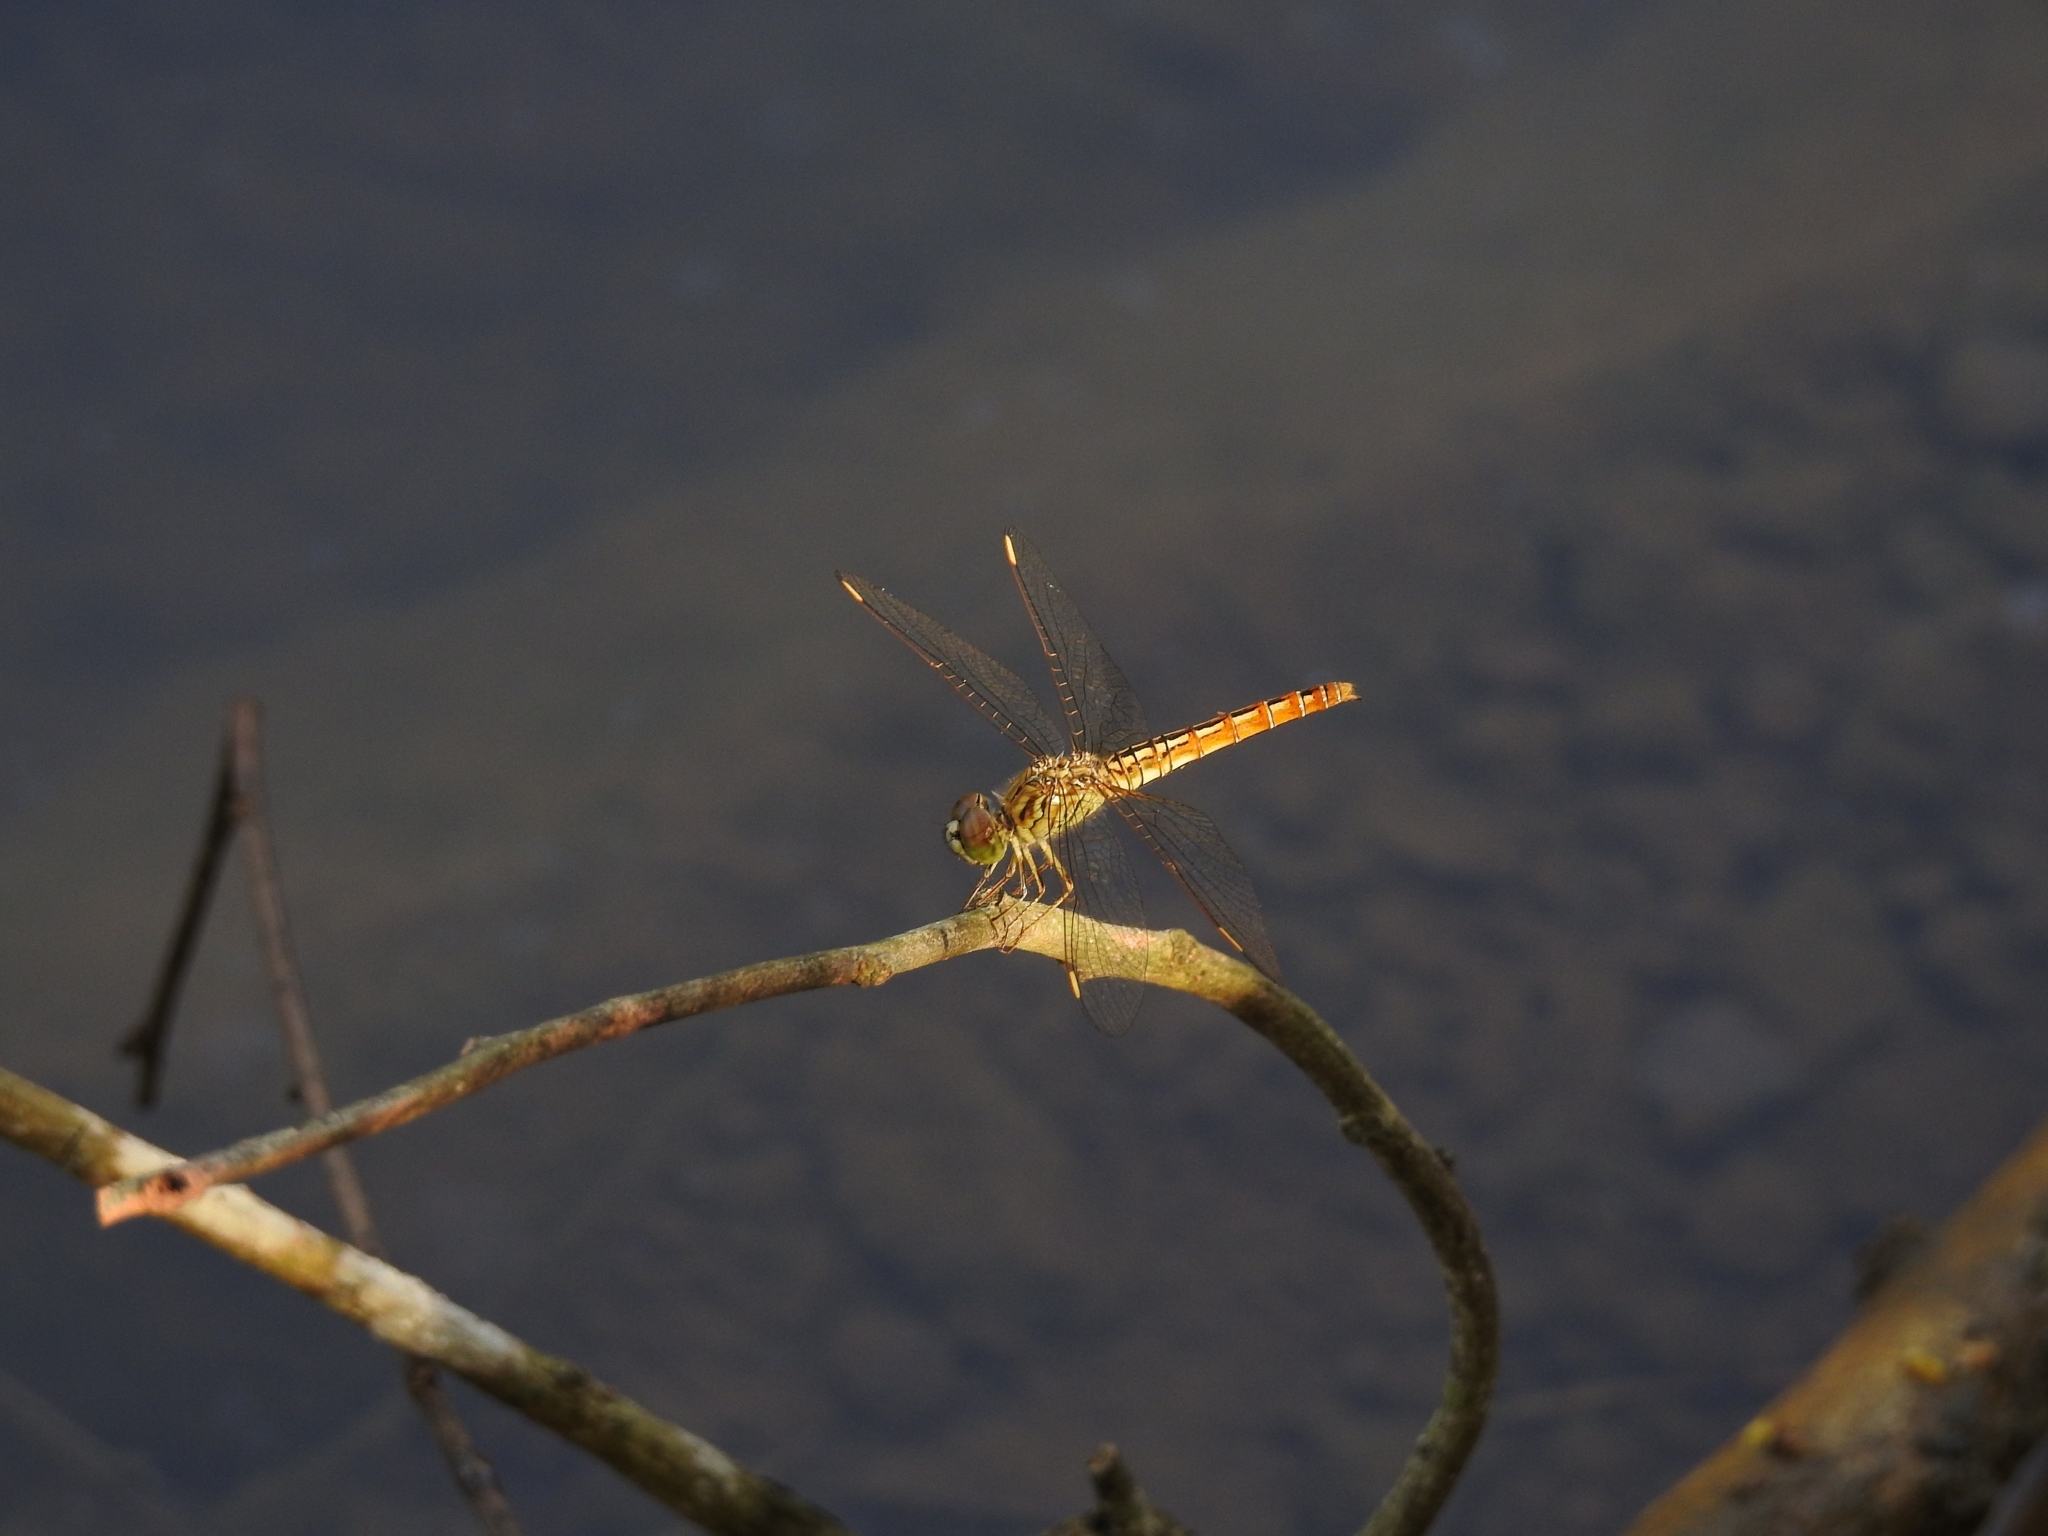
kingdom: Animalia
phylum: Arthropoda
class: Insecta
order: Odonata
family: Libellulidae
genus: Brachythemis
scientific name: Brachythemis contaminata
